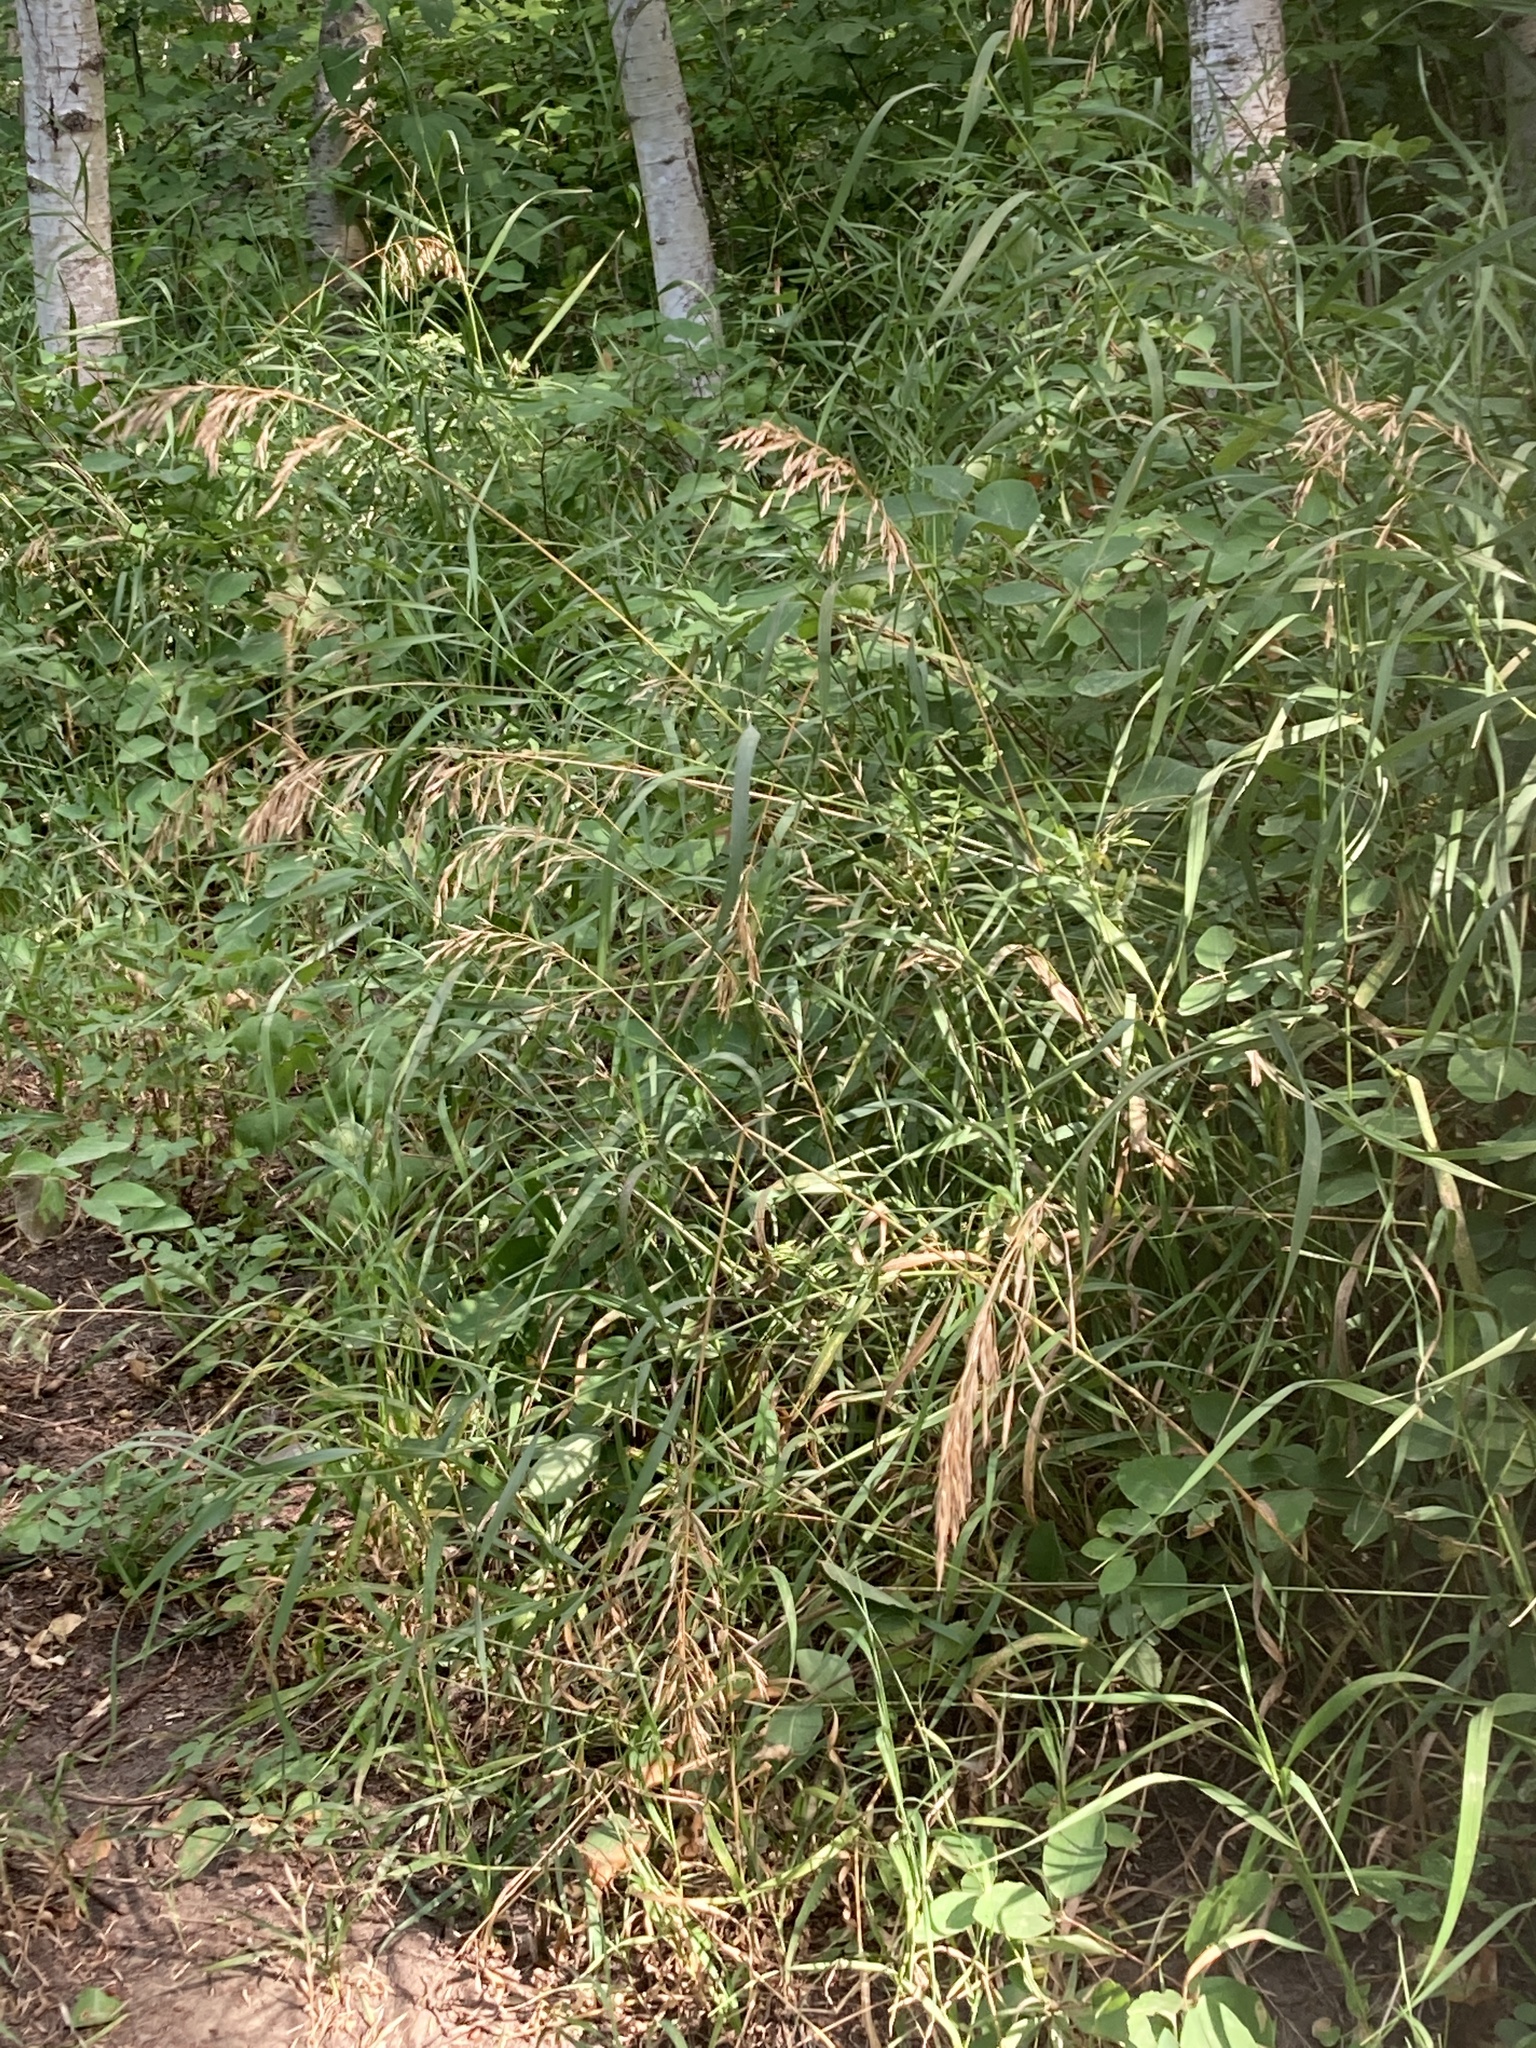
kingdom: Plantae
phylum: Tracheophyta
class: Liliopsida
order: Poales
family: Poaceae
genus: Bromus
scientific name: Bromus inermis
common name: Smooth brome
